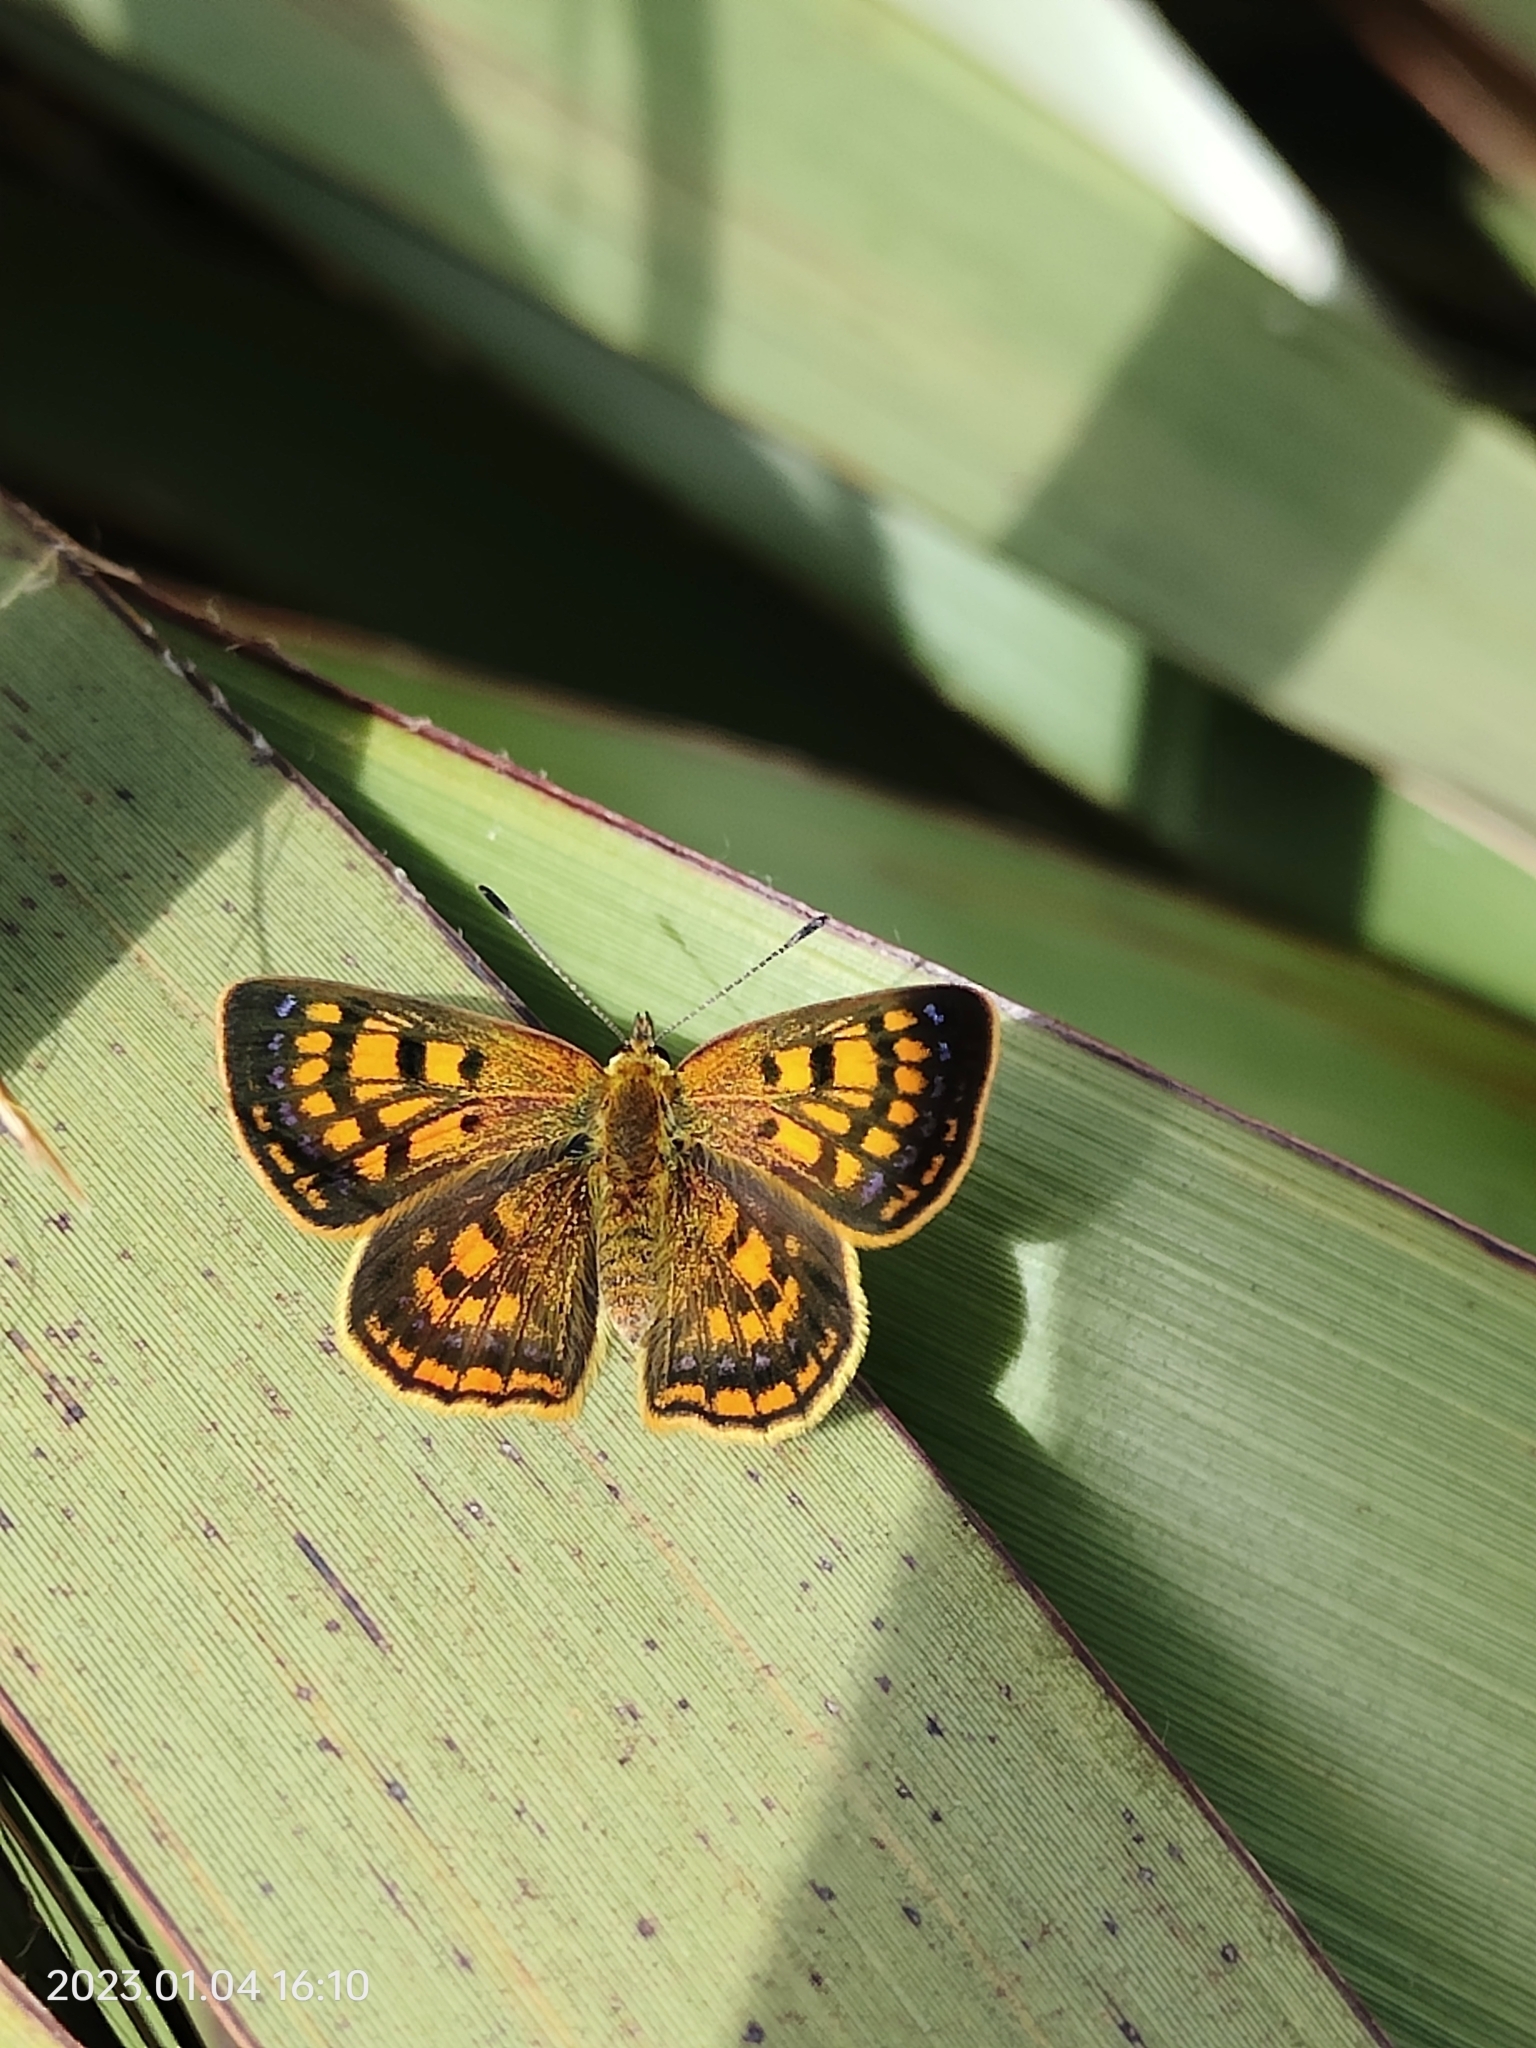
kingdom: Animalia
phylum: Arthropoda
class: Insecta
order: Lepidoptera
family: Lycaenidae
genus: Lycaena
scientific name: Lycaena
